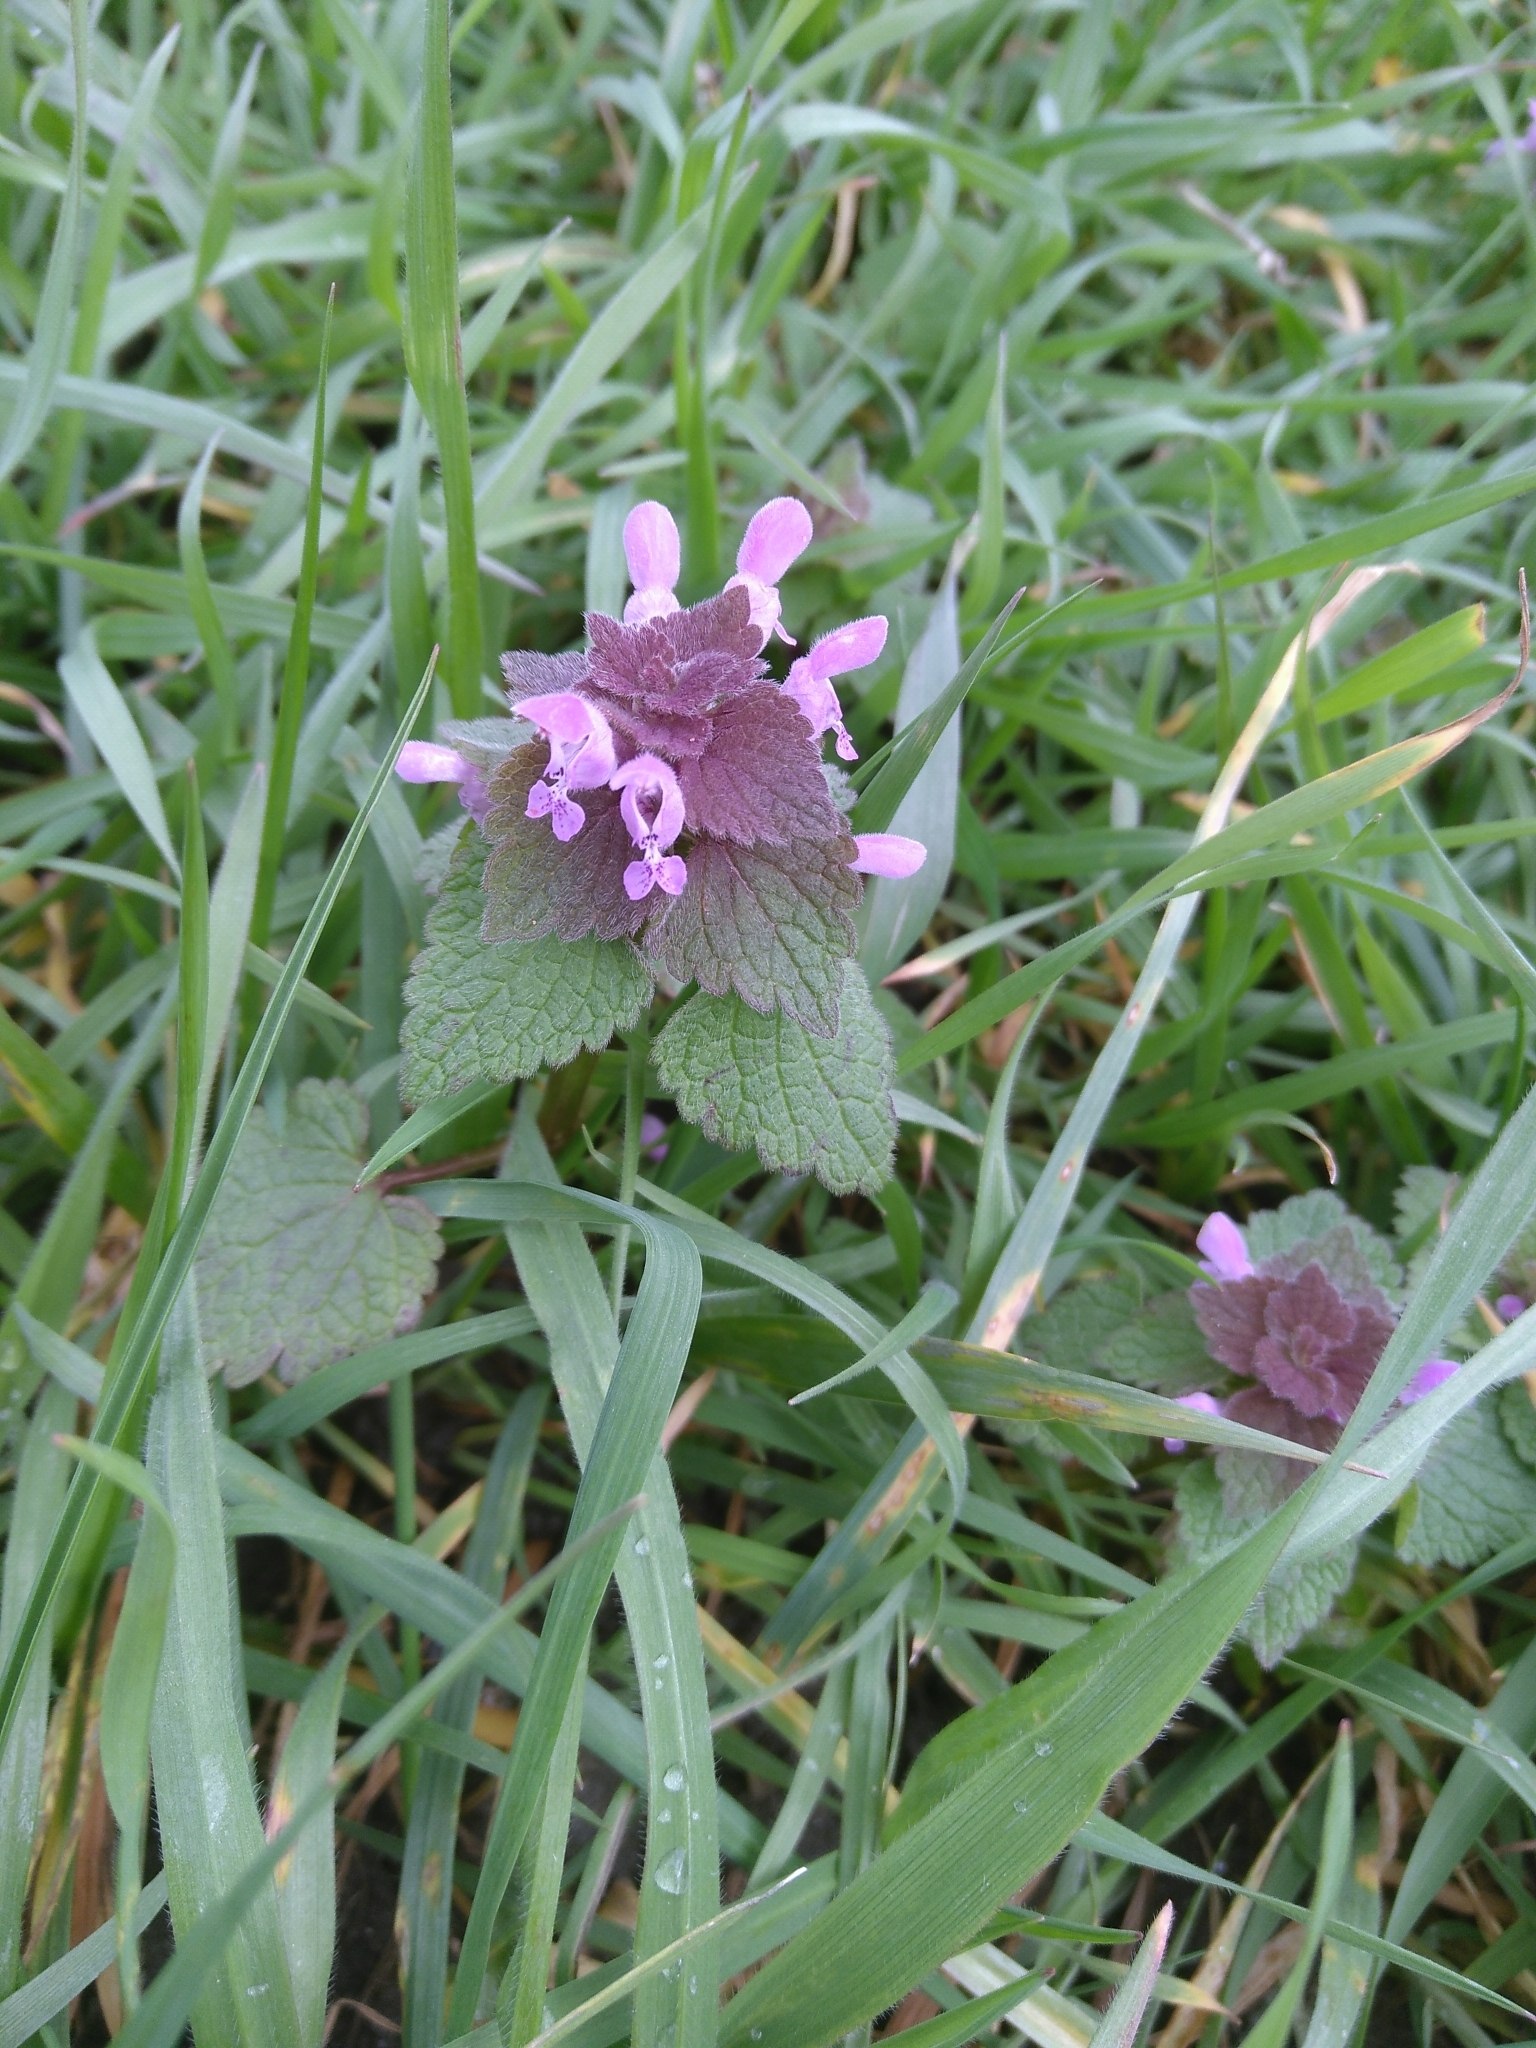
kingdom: Plantae
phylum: Tracheophyta
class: Magnoliopsida
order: Lamiales
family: Lamiaceae
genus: Lamium
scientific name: Lamium purpureum
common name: Red dead-nettle
